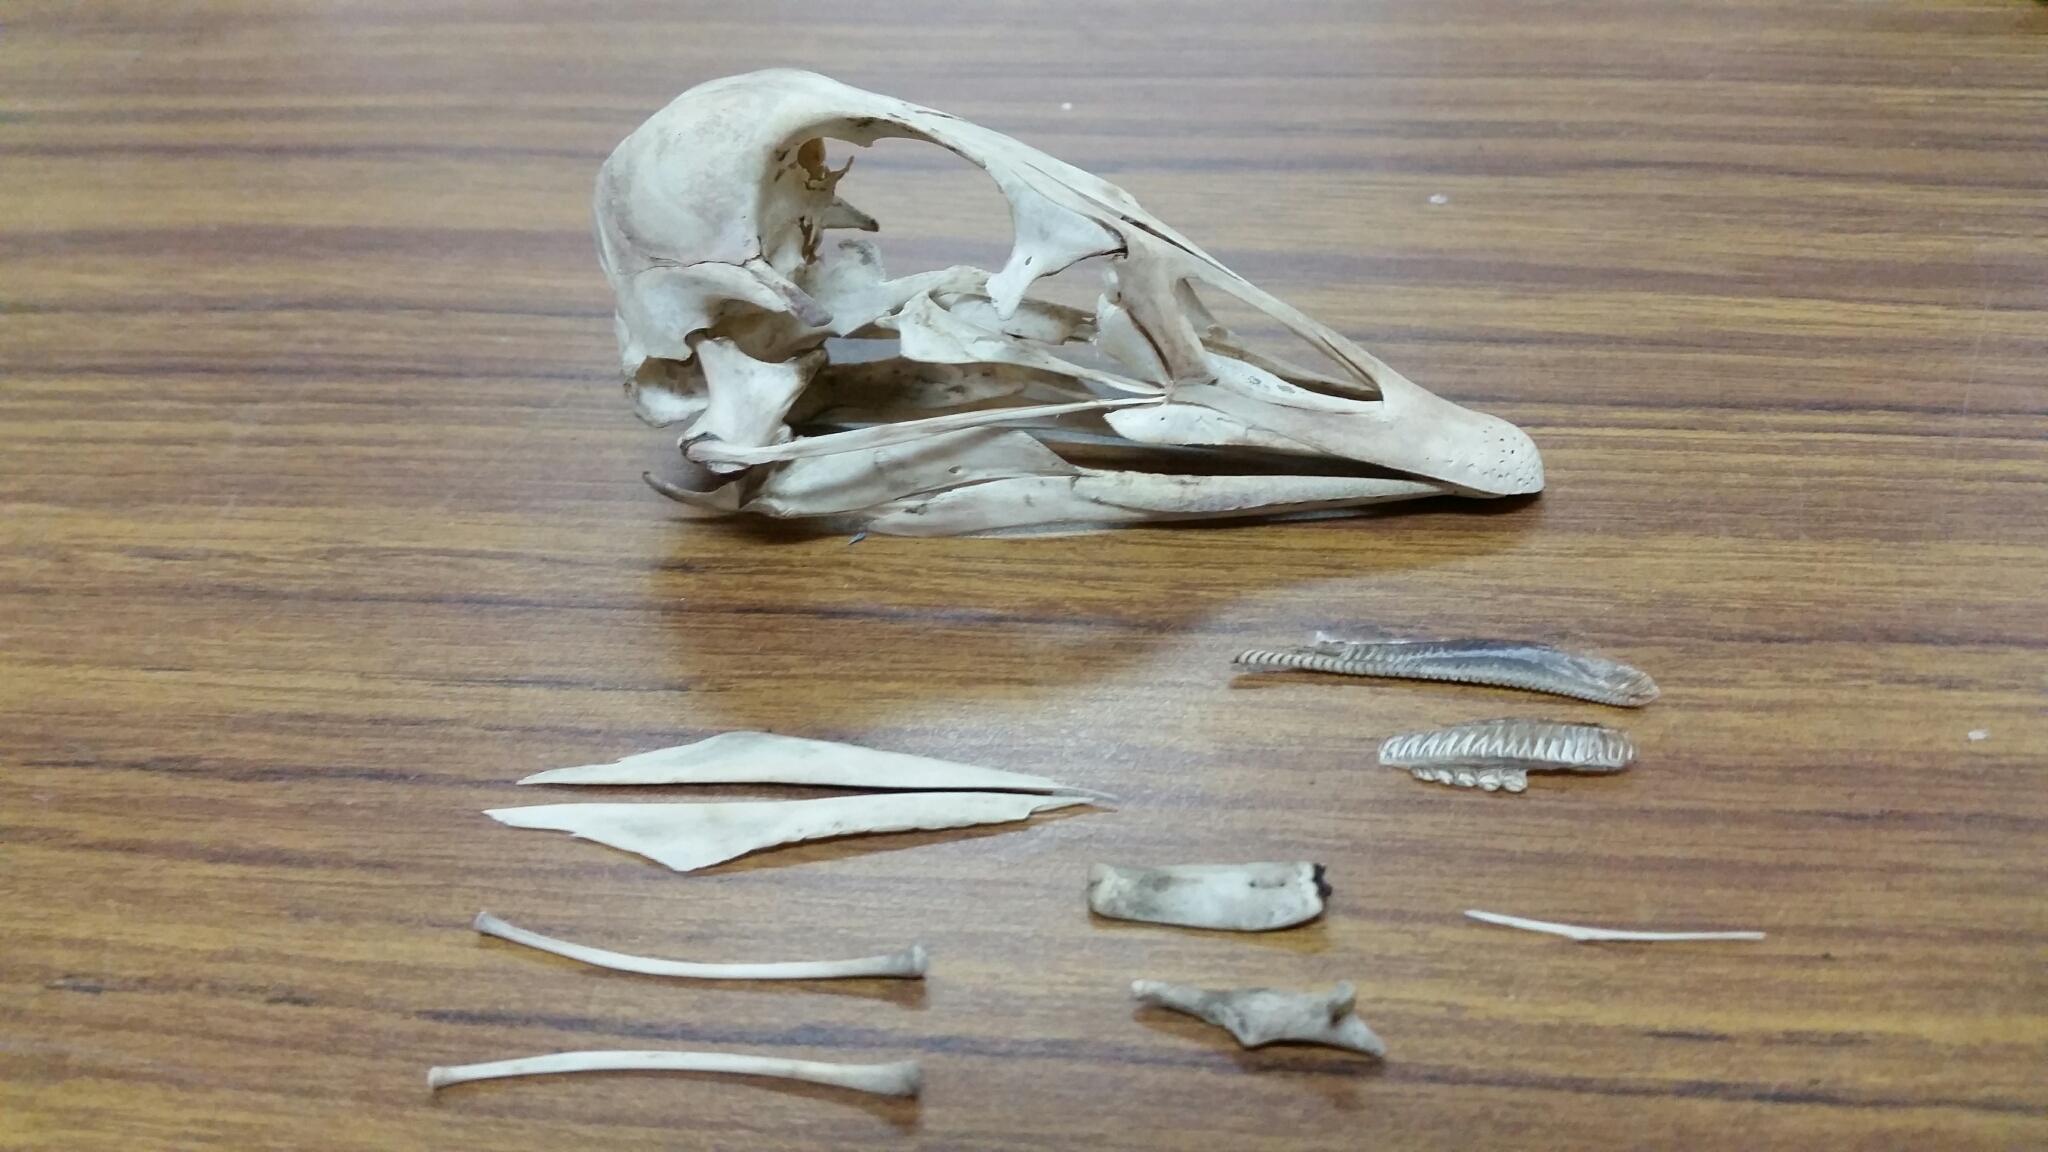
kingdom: Animalia
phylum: Chordata
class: Aves
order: Anseriformes
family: Anatidae
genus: Branta
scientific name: Branta canadensis
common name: Canada goose
